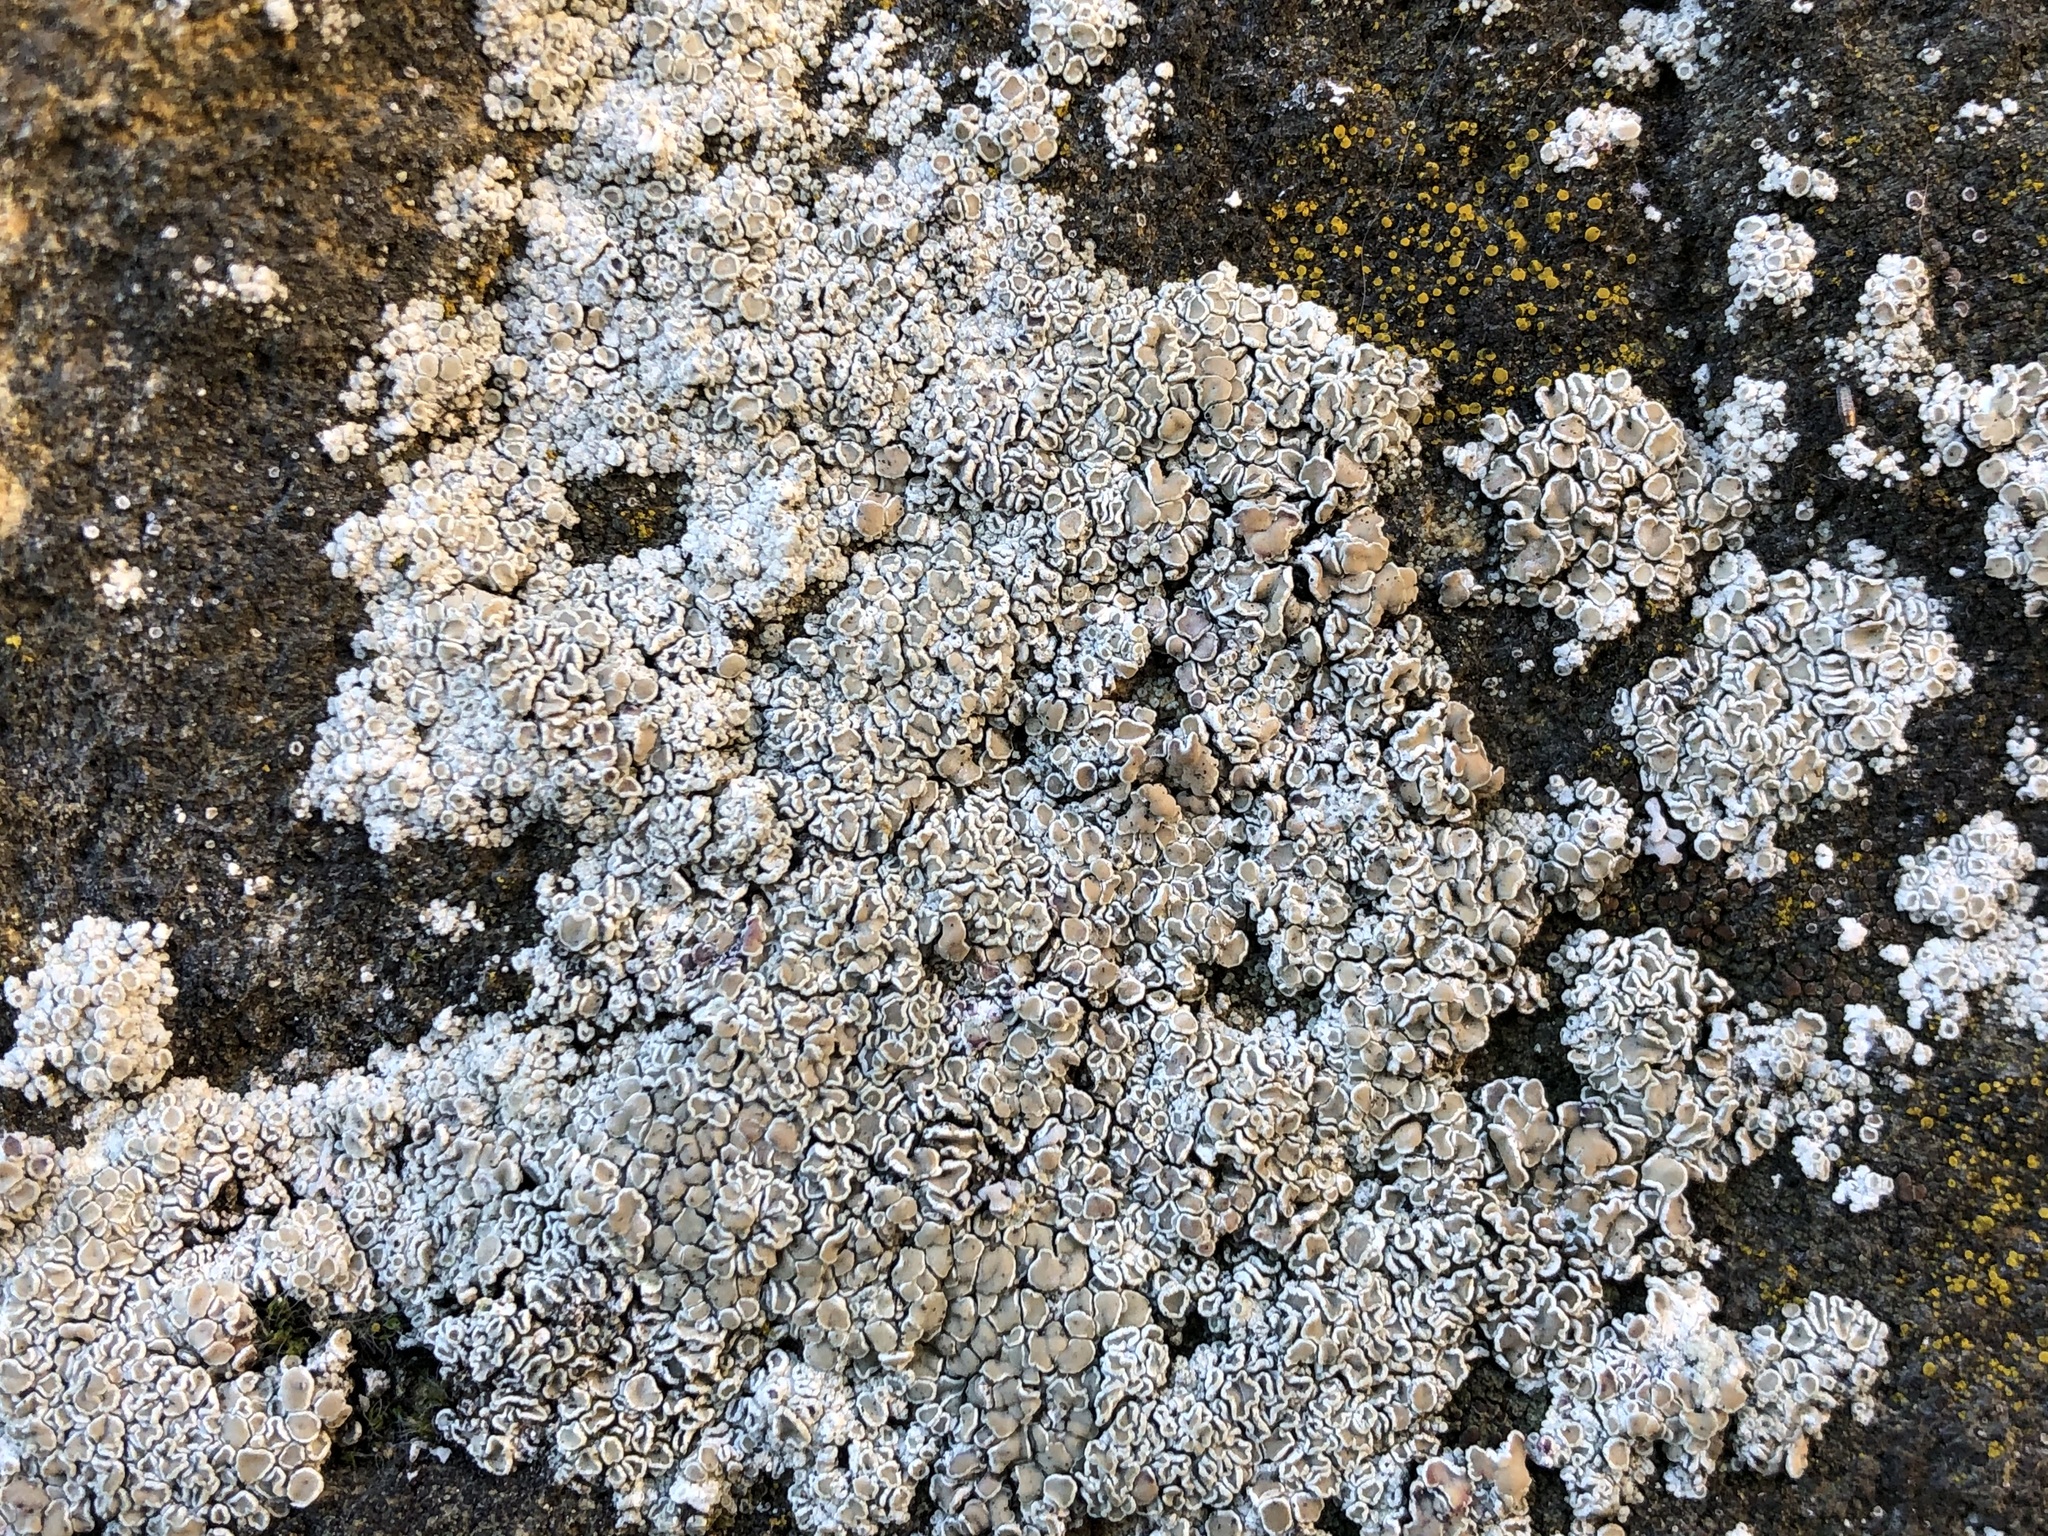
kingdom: Fungi
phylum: Ascomycota
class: Lecanoromycetes
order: Lecanorales
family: Lecanoraceae
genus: Polyozosia
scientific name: Polyozosia albescens
